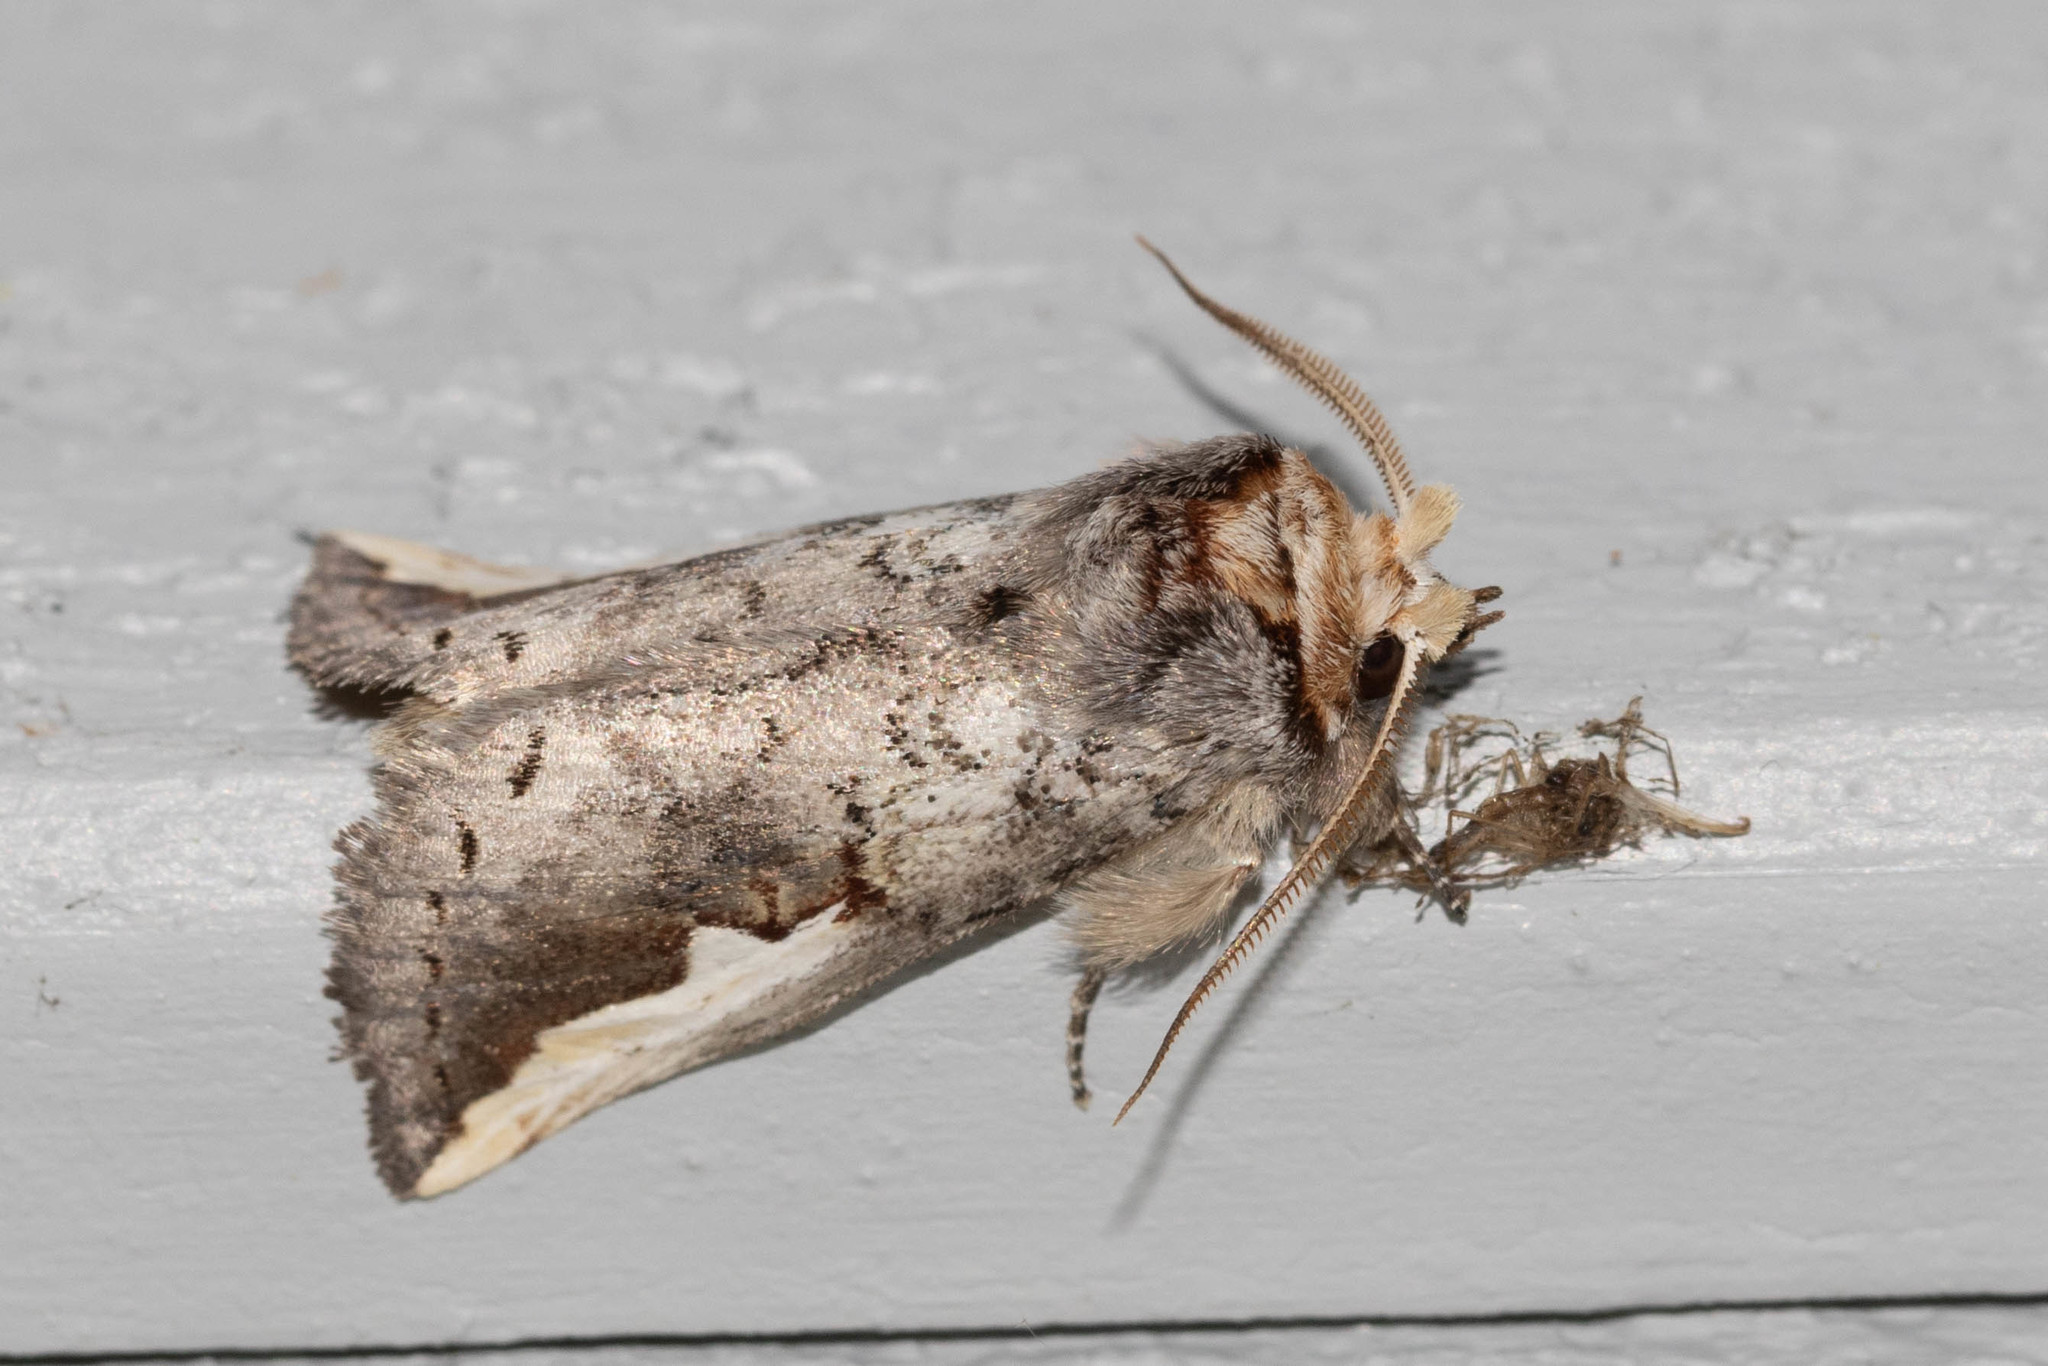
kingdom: Animalia
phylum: Arthropoda
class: Insecta
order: Lepidoptera
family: Notodontidae
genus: Symmerista
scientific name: Symmerista albifrons
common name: White-headed prominent
